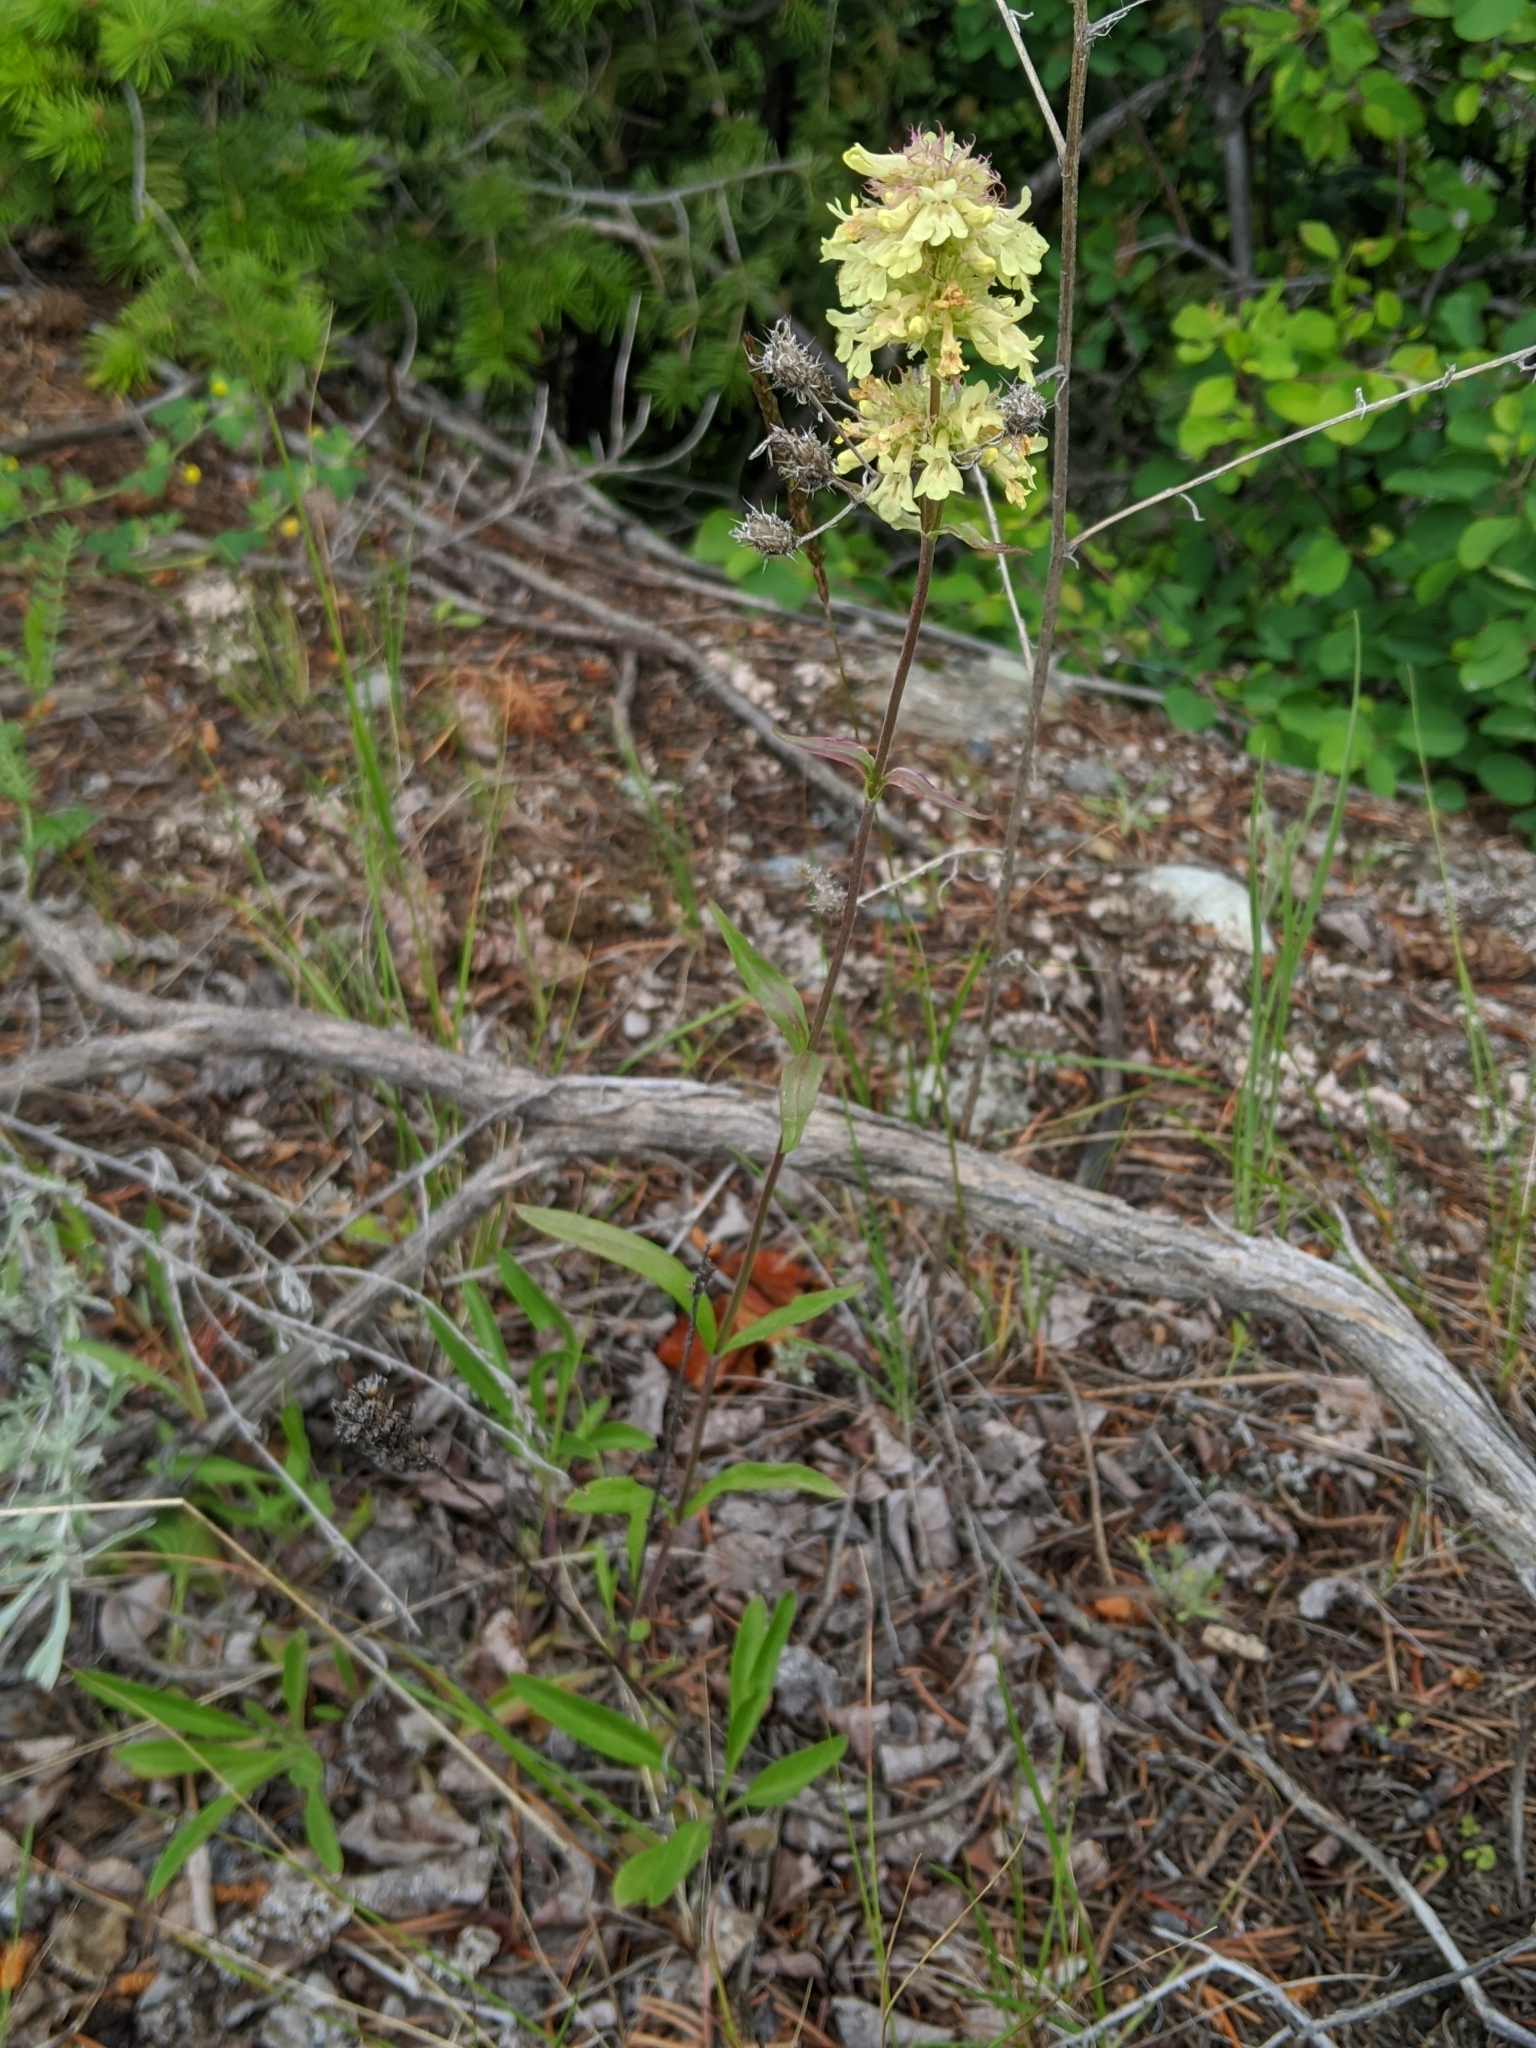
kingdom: Plantae
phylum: Tracheophyta
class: Magnoliopsida
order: Lamiales
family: Plantaginaceae
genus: Penstemon
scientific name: Penstemon confertus
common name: Lesser yellow beardtongue
